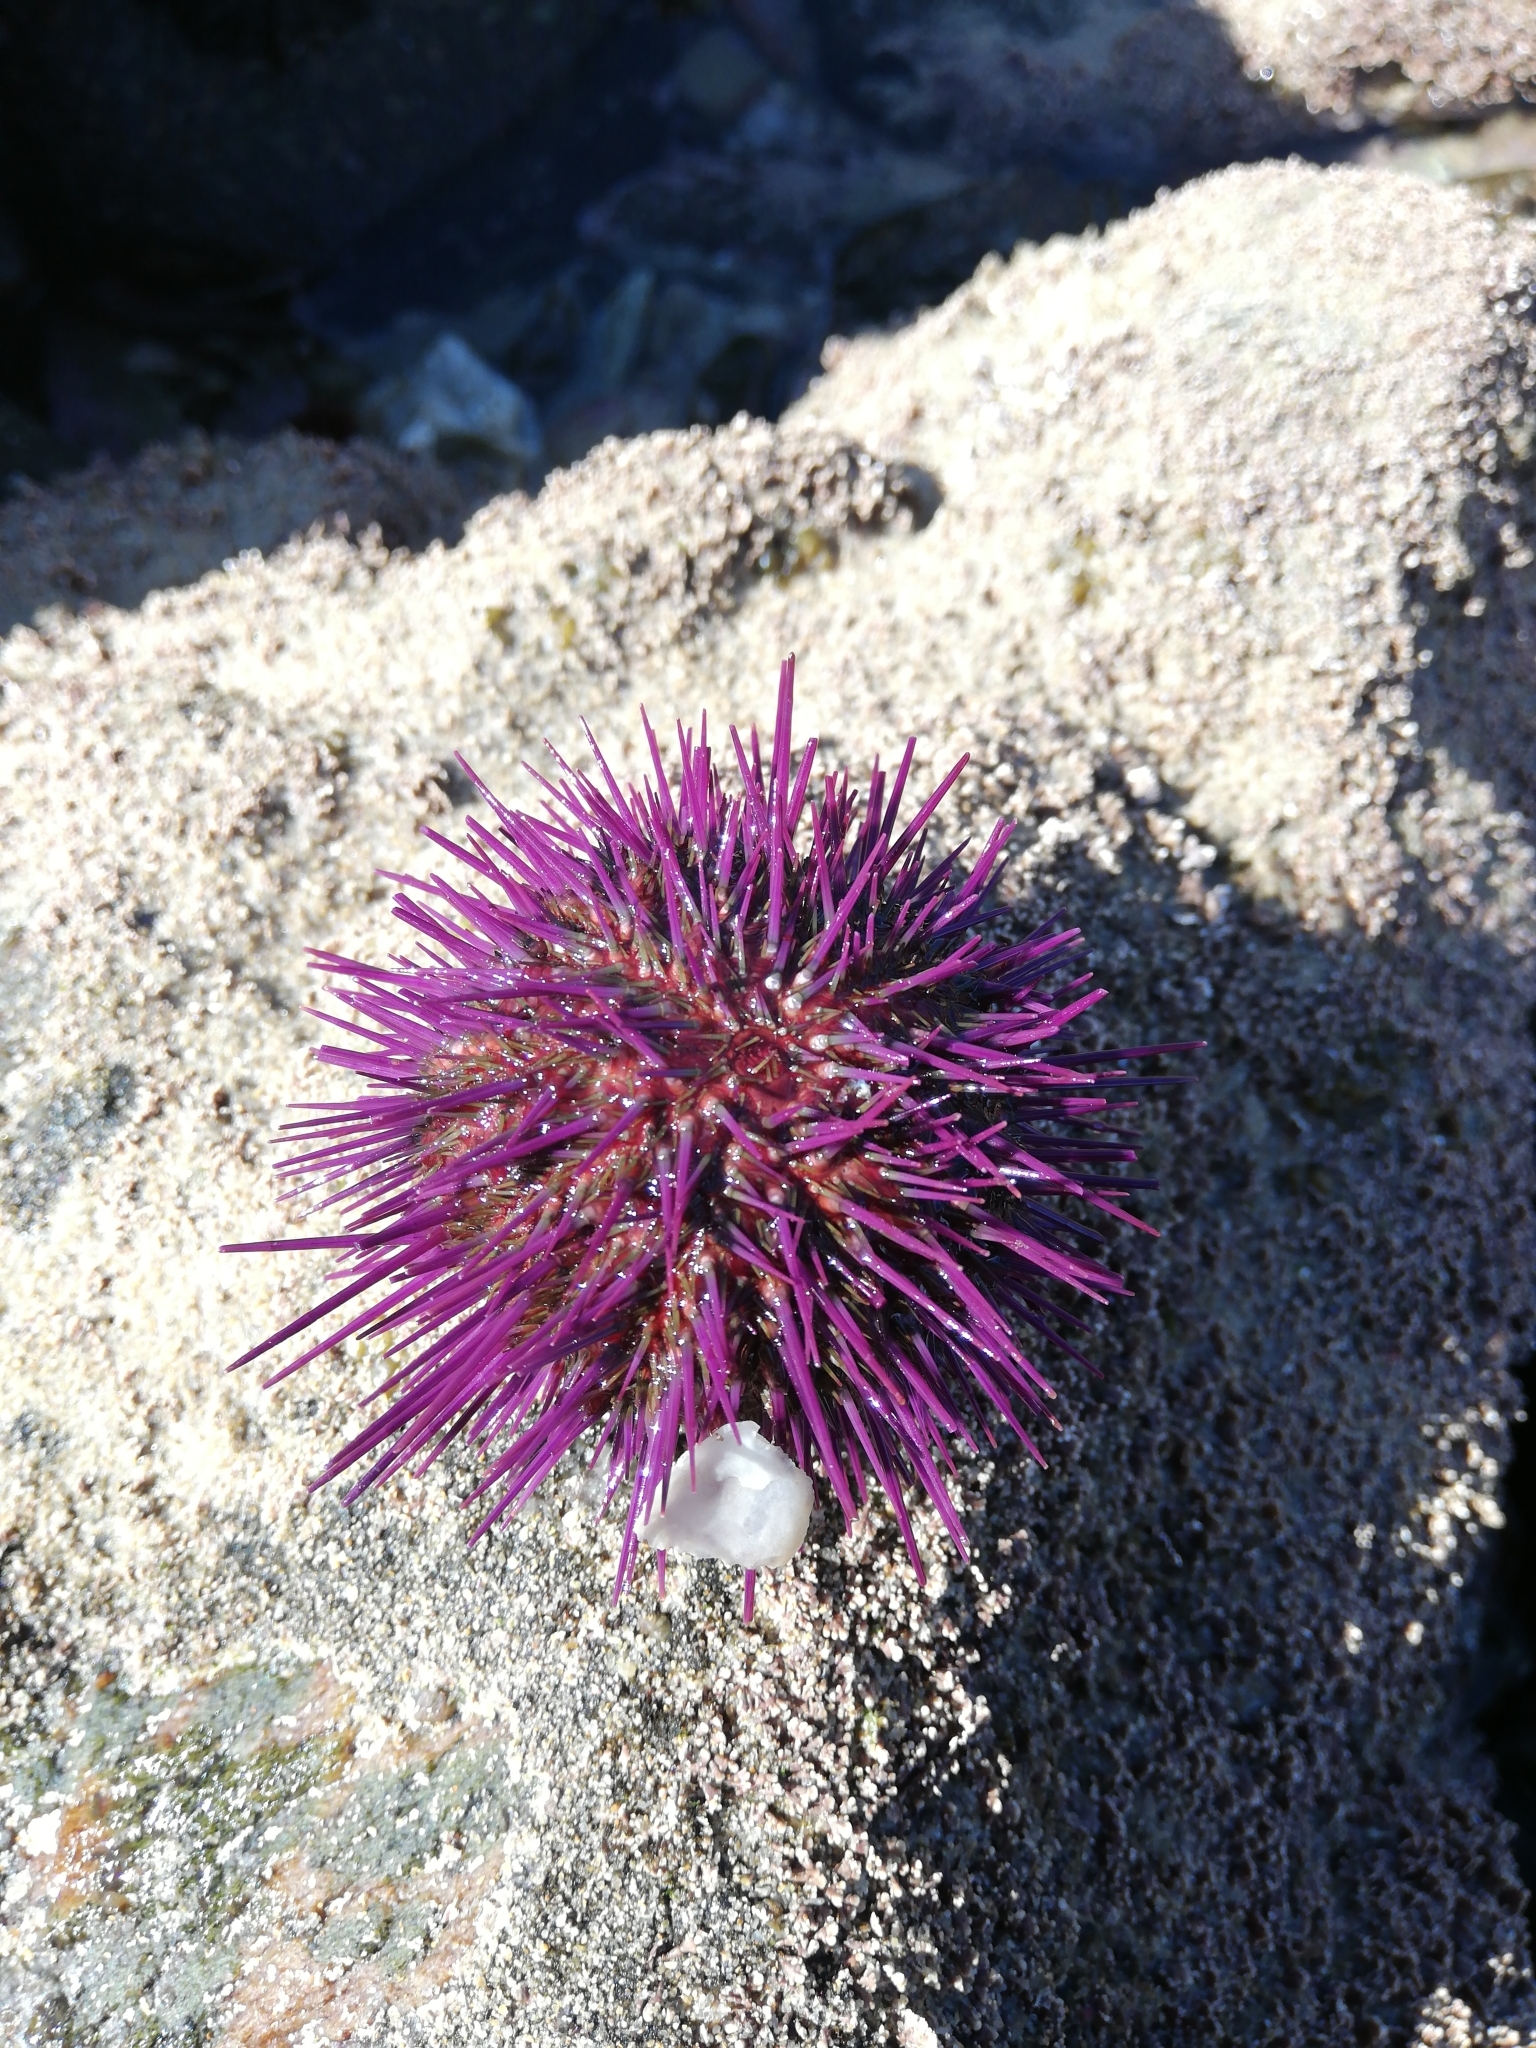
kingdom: Animalia
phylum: Echinodermata
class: Echinoidea
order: Camarodonta
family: Parechinidae
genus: Parechinus
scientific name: Parechinus angulosus
